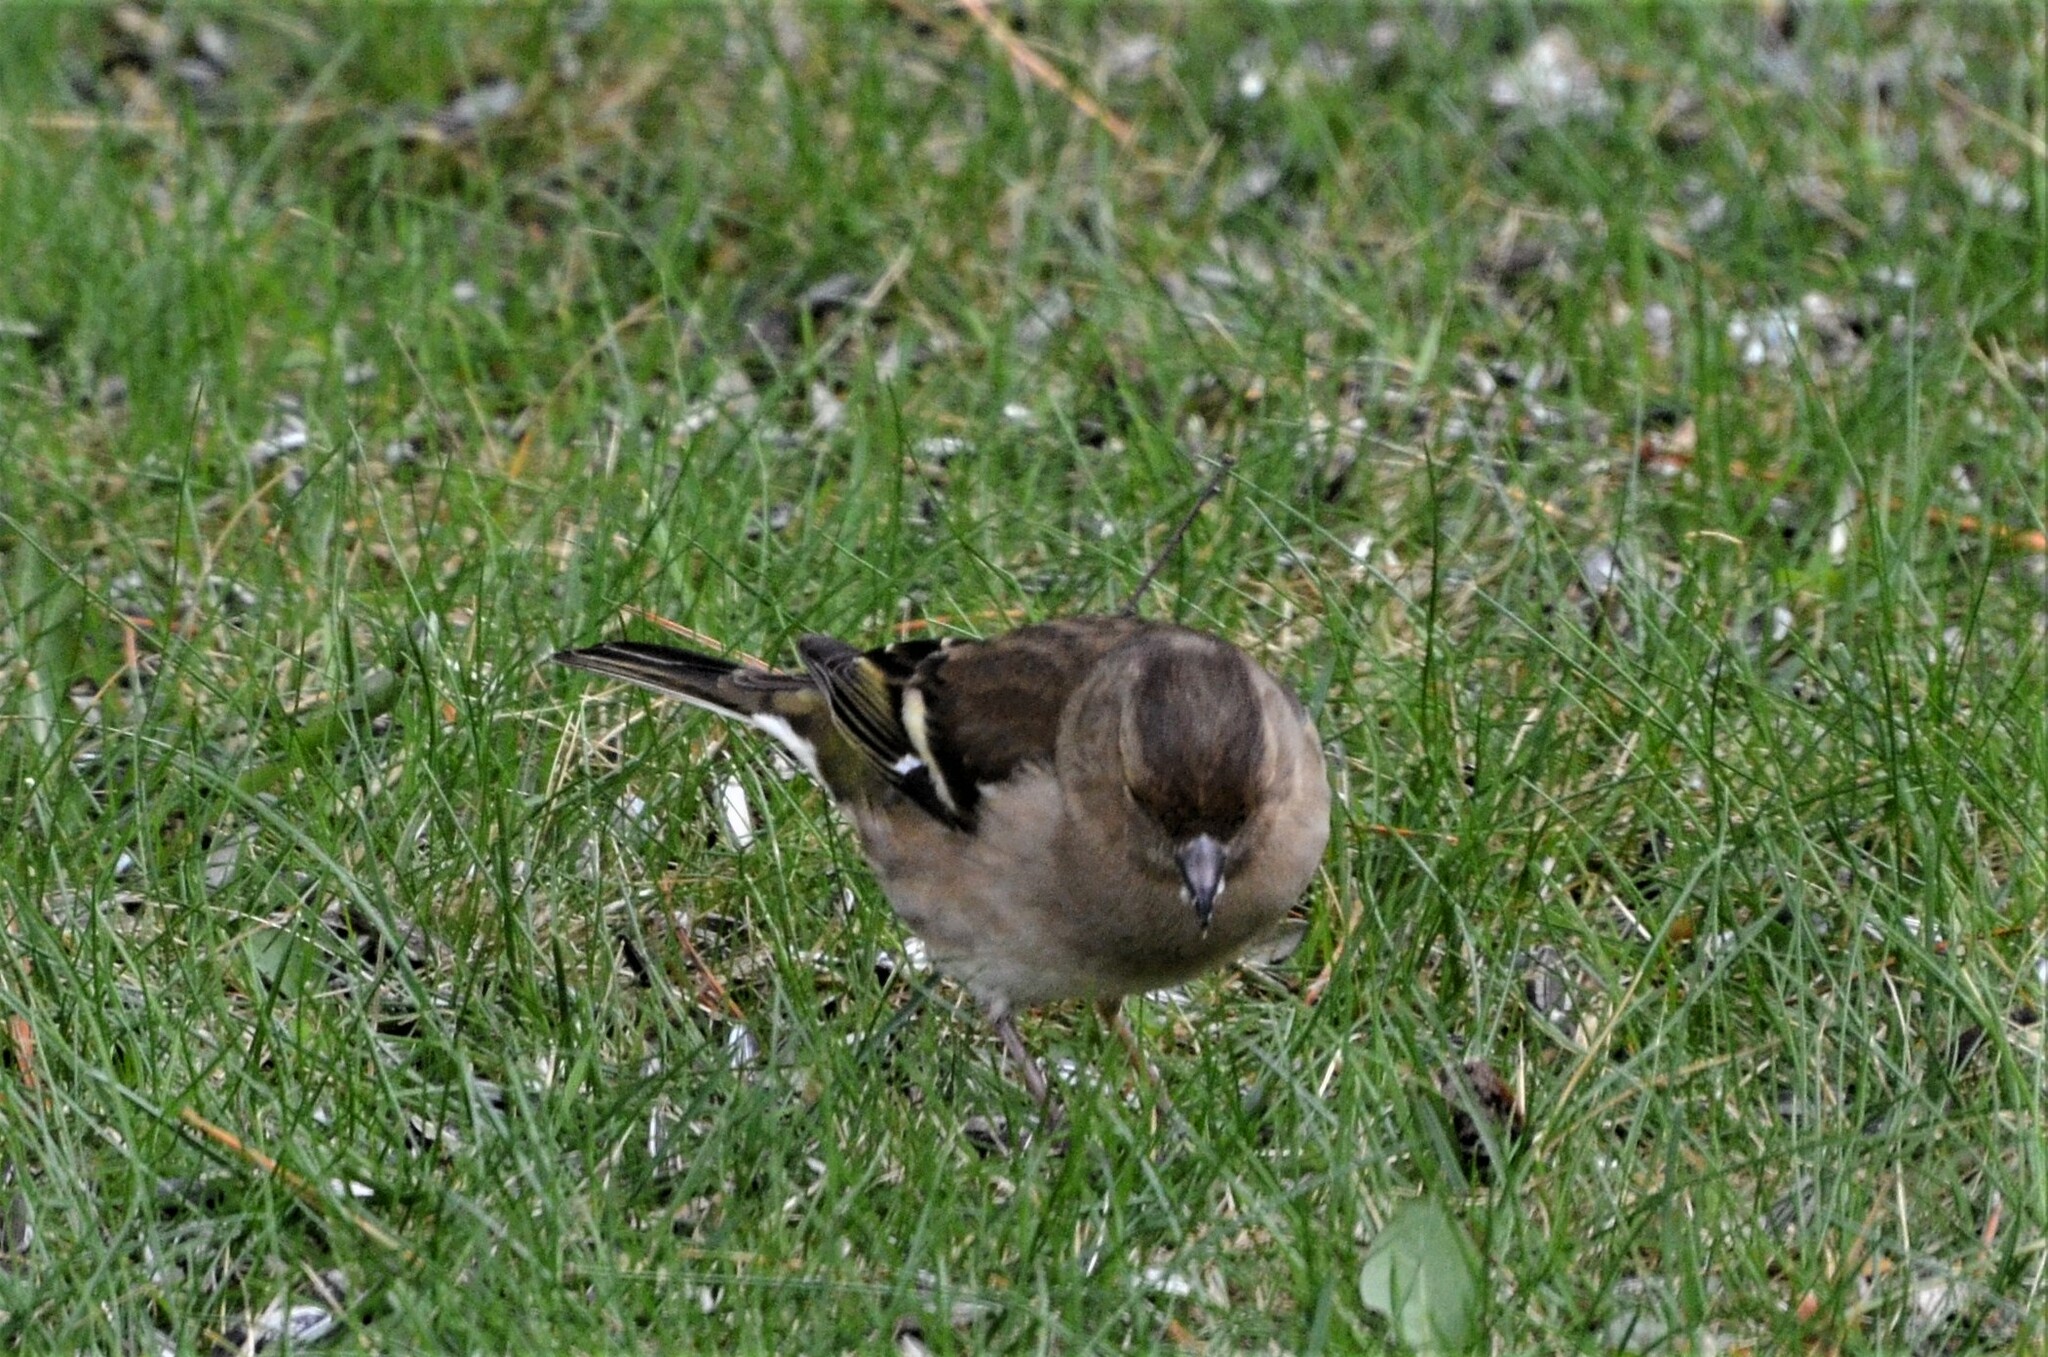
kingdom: Animalia
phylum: Chordata
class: Aves
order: Passeriformes
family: Fringillidae
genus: Fringilla
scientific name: Fringilla coelebs
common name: Common chaffinch
